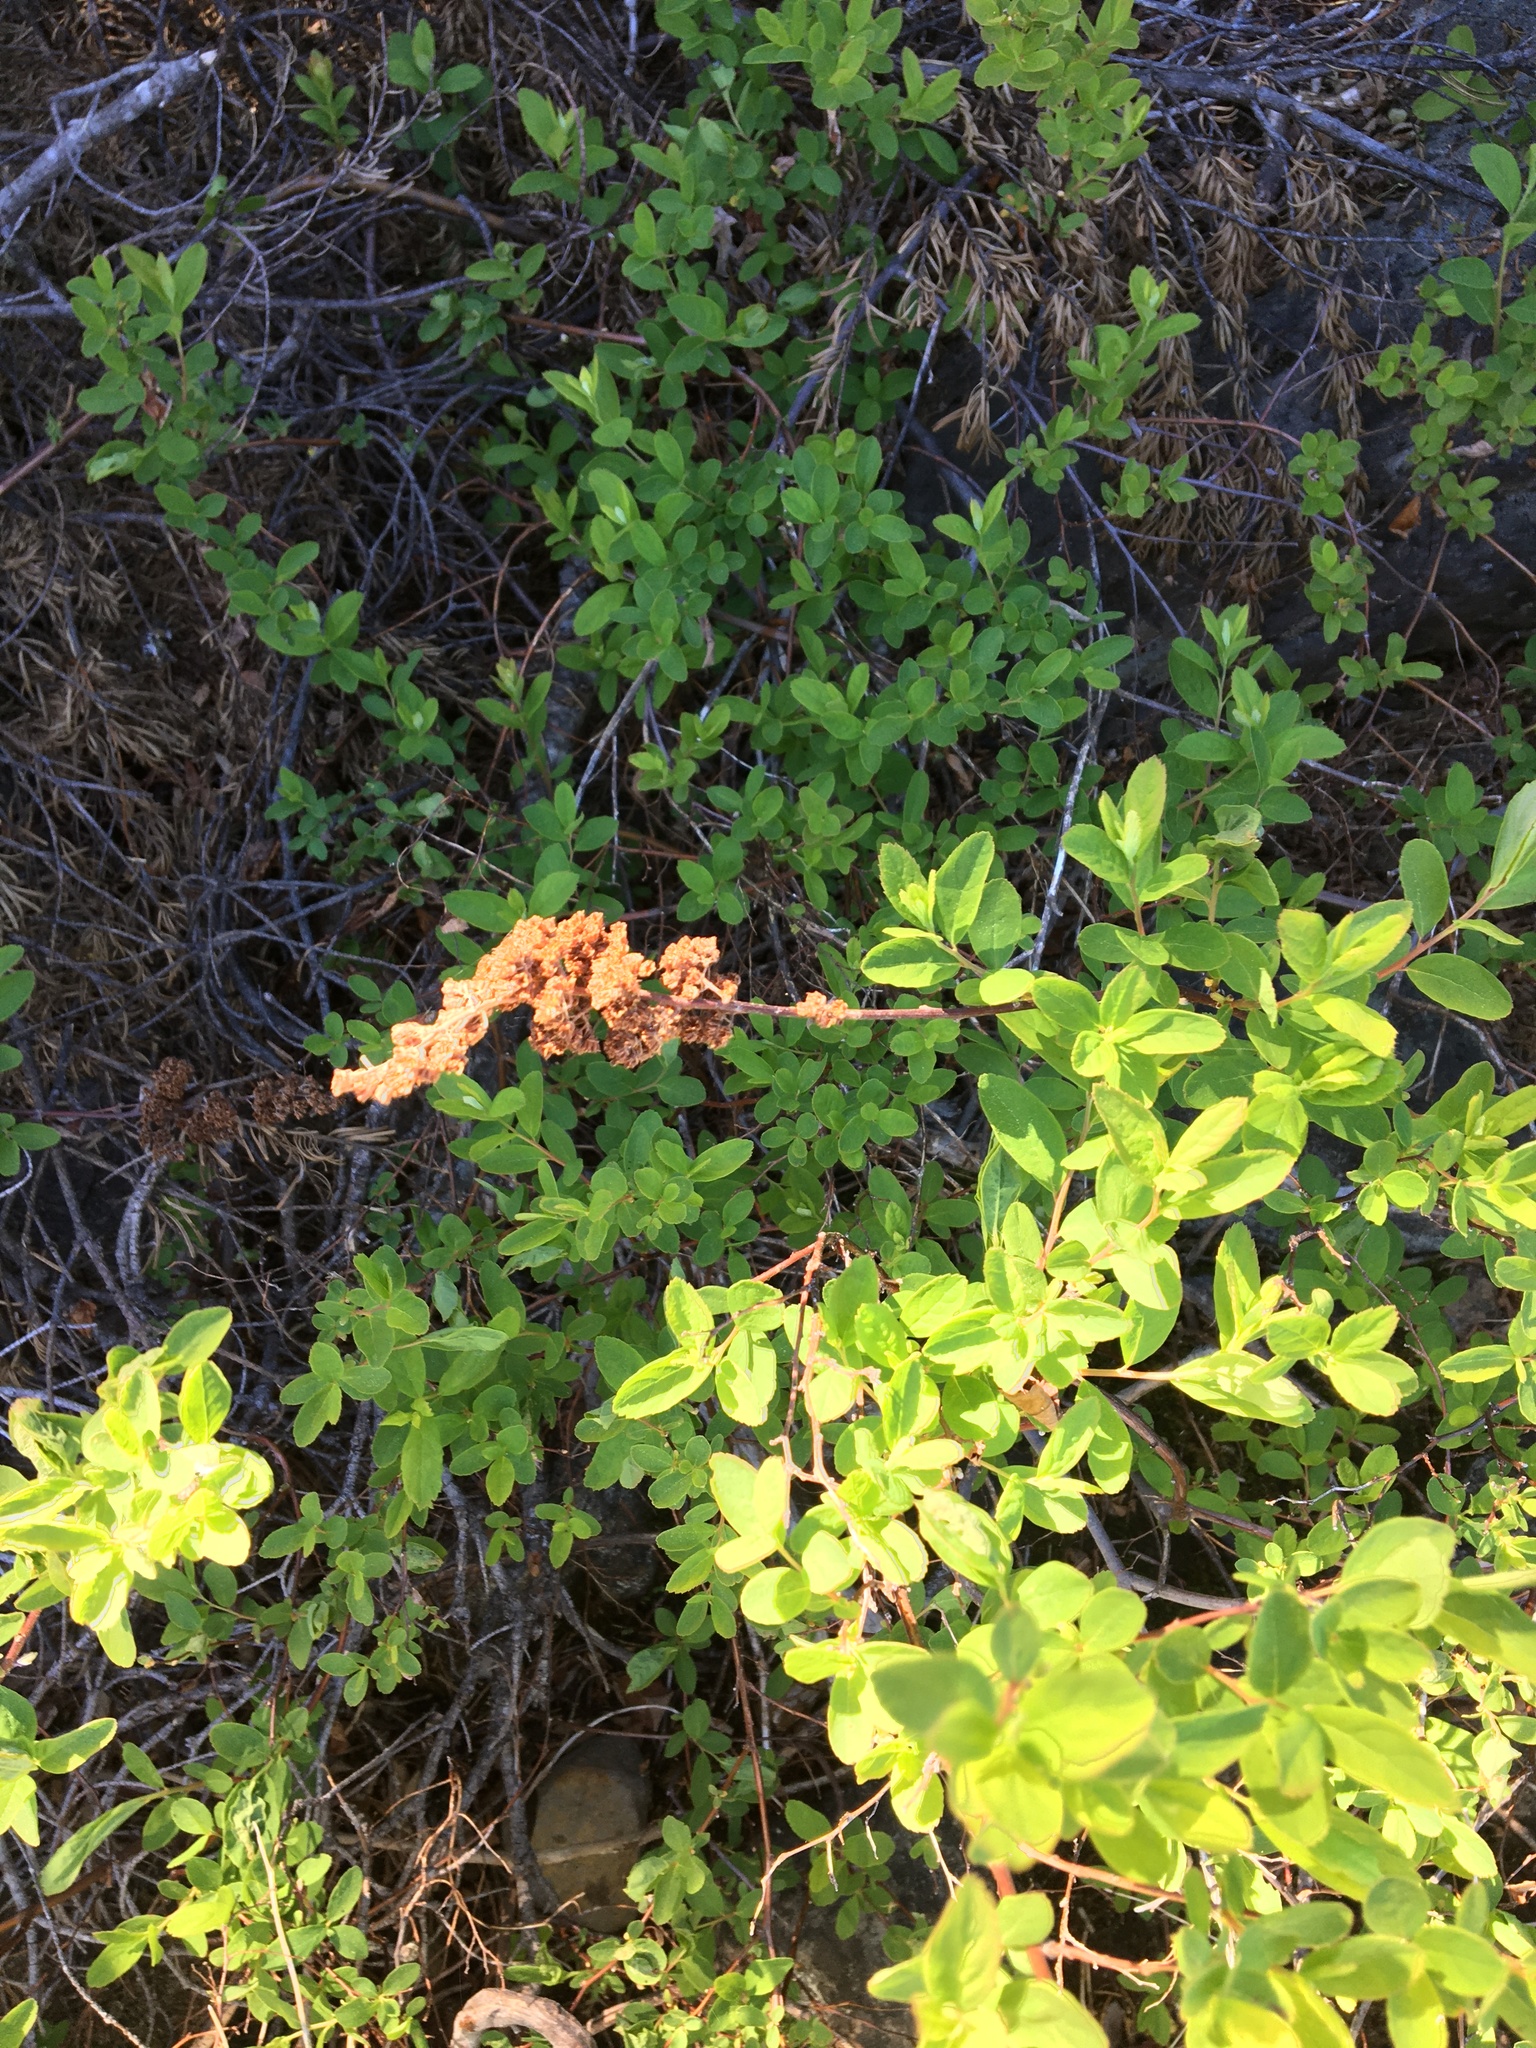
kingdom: Plantae
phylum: Tracheophyta
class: Magnoliopsida
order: Rosales
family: Rosaceae
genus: Spiraea
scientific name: Spiraea douglasii
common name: Steeplebush
